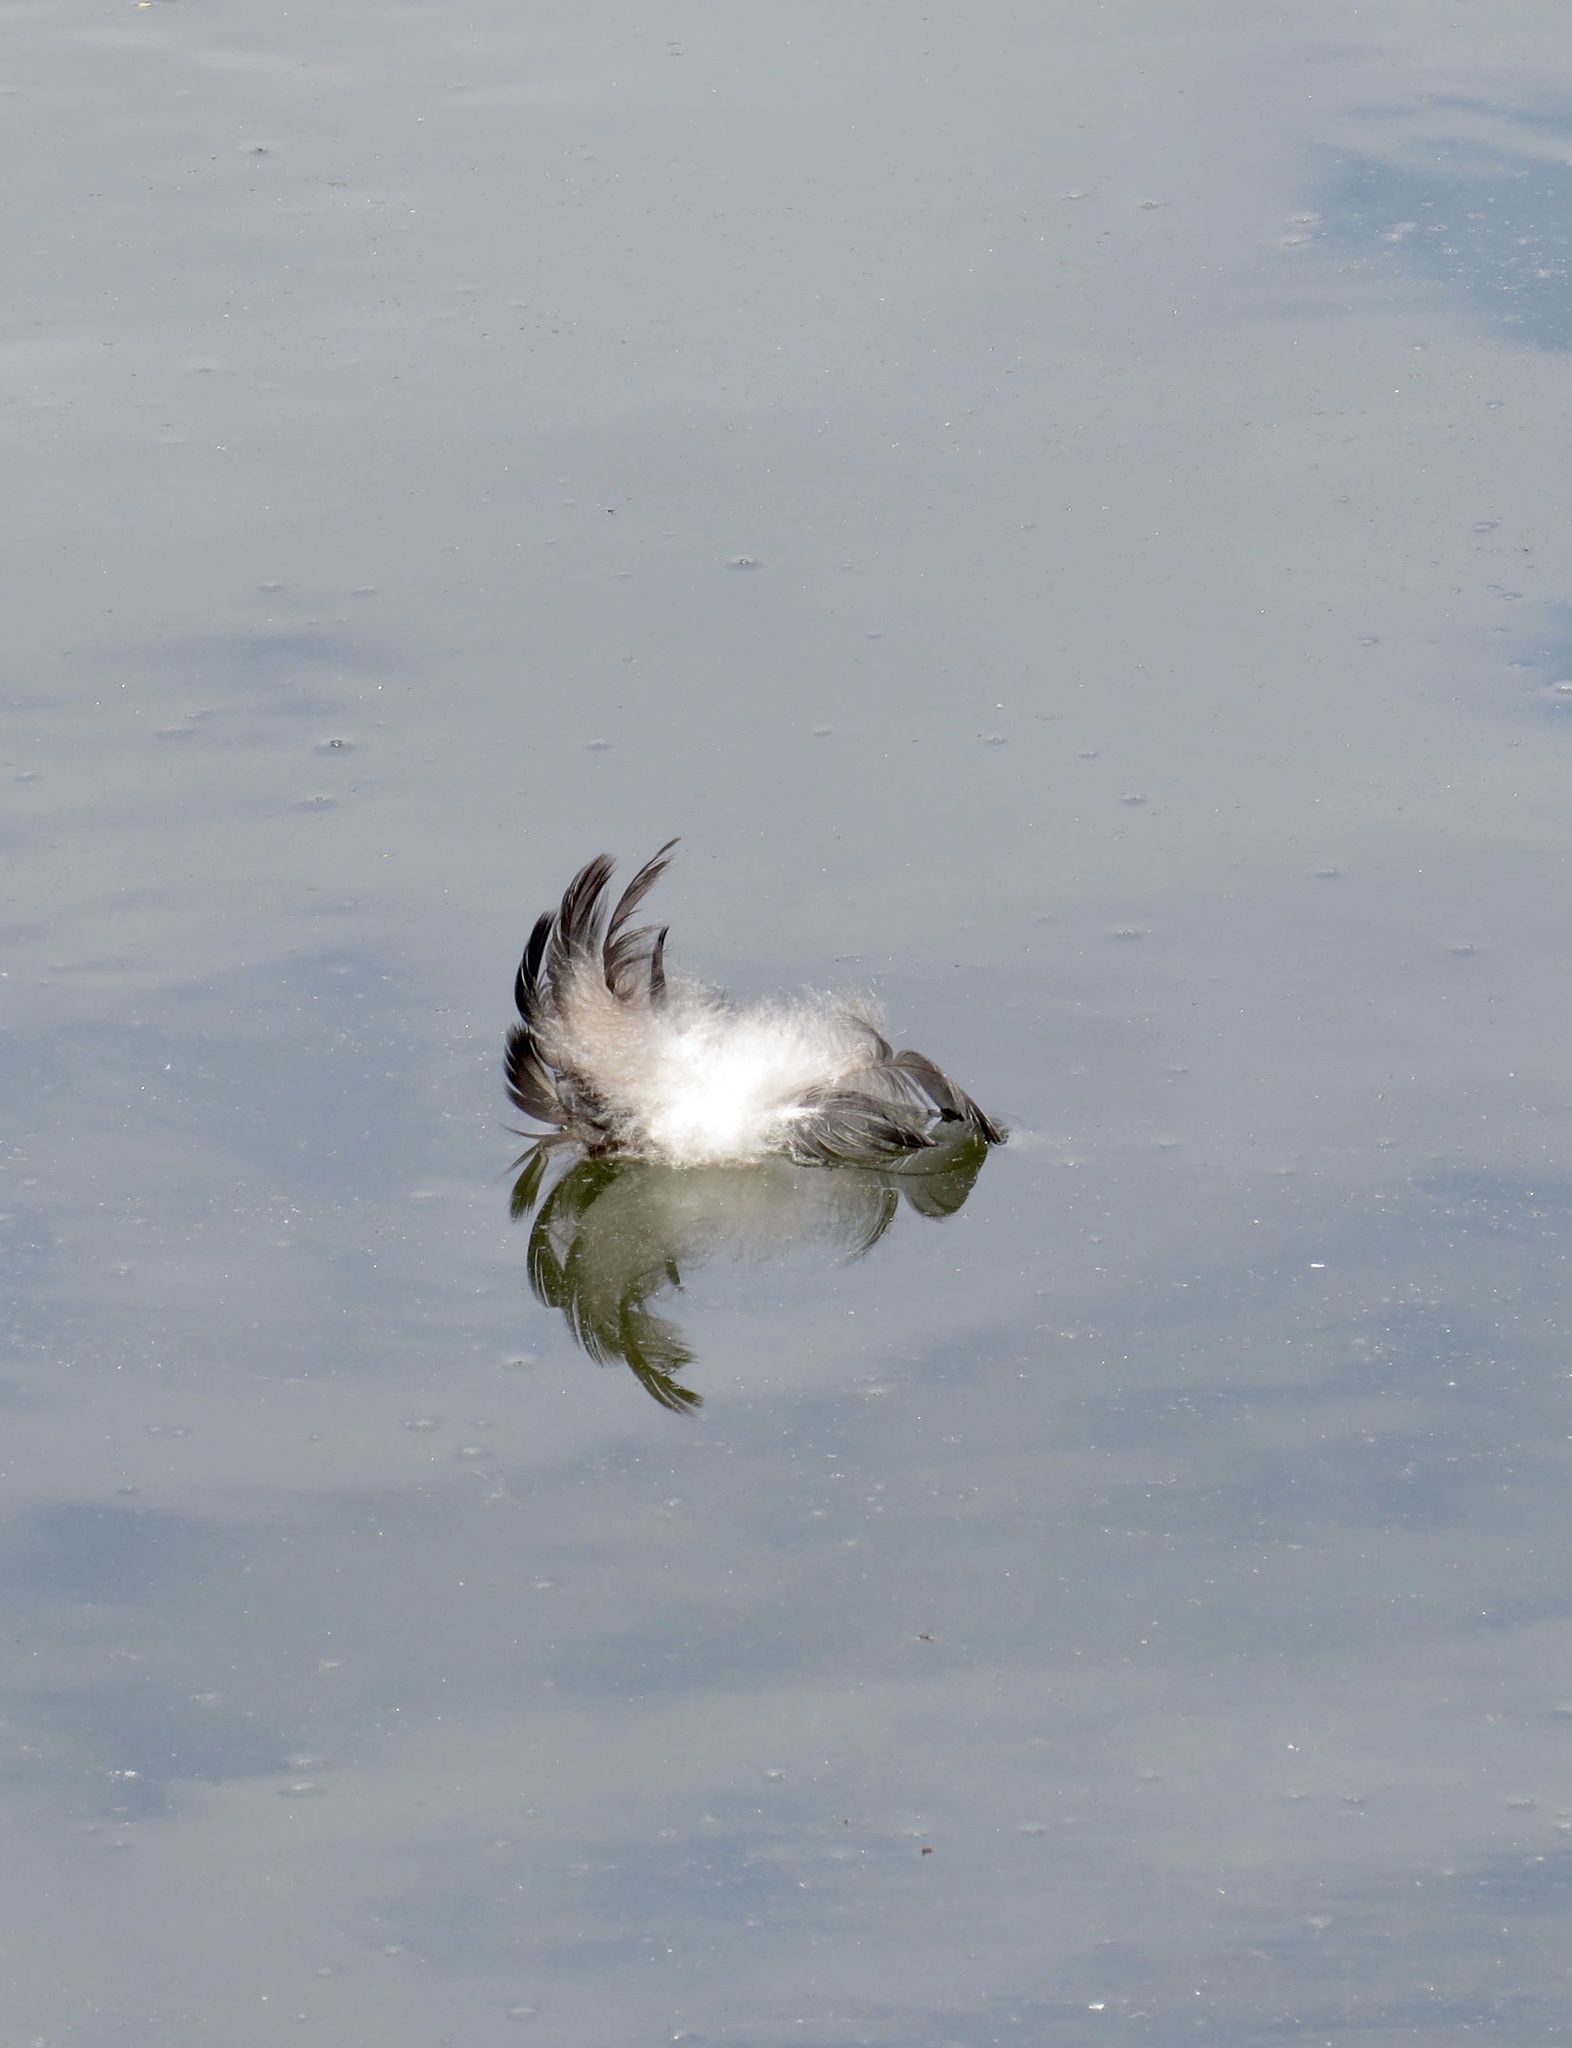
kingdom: Animalia
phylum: Chordata
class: Aves
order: Anseriformes
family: Anatidae
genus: Branta
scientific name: Branta canadensis
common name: Canada goose
